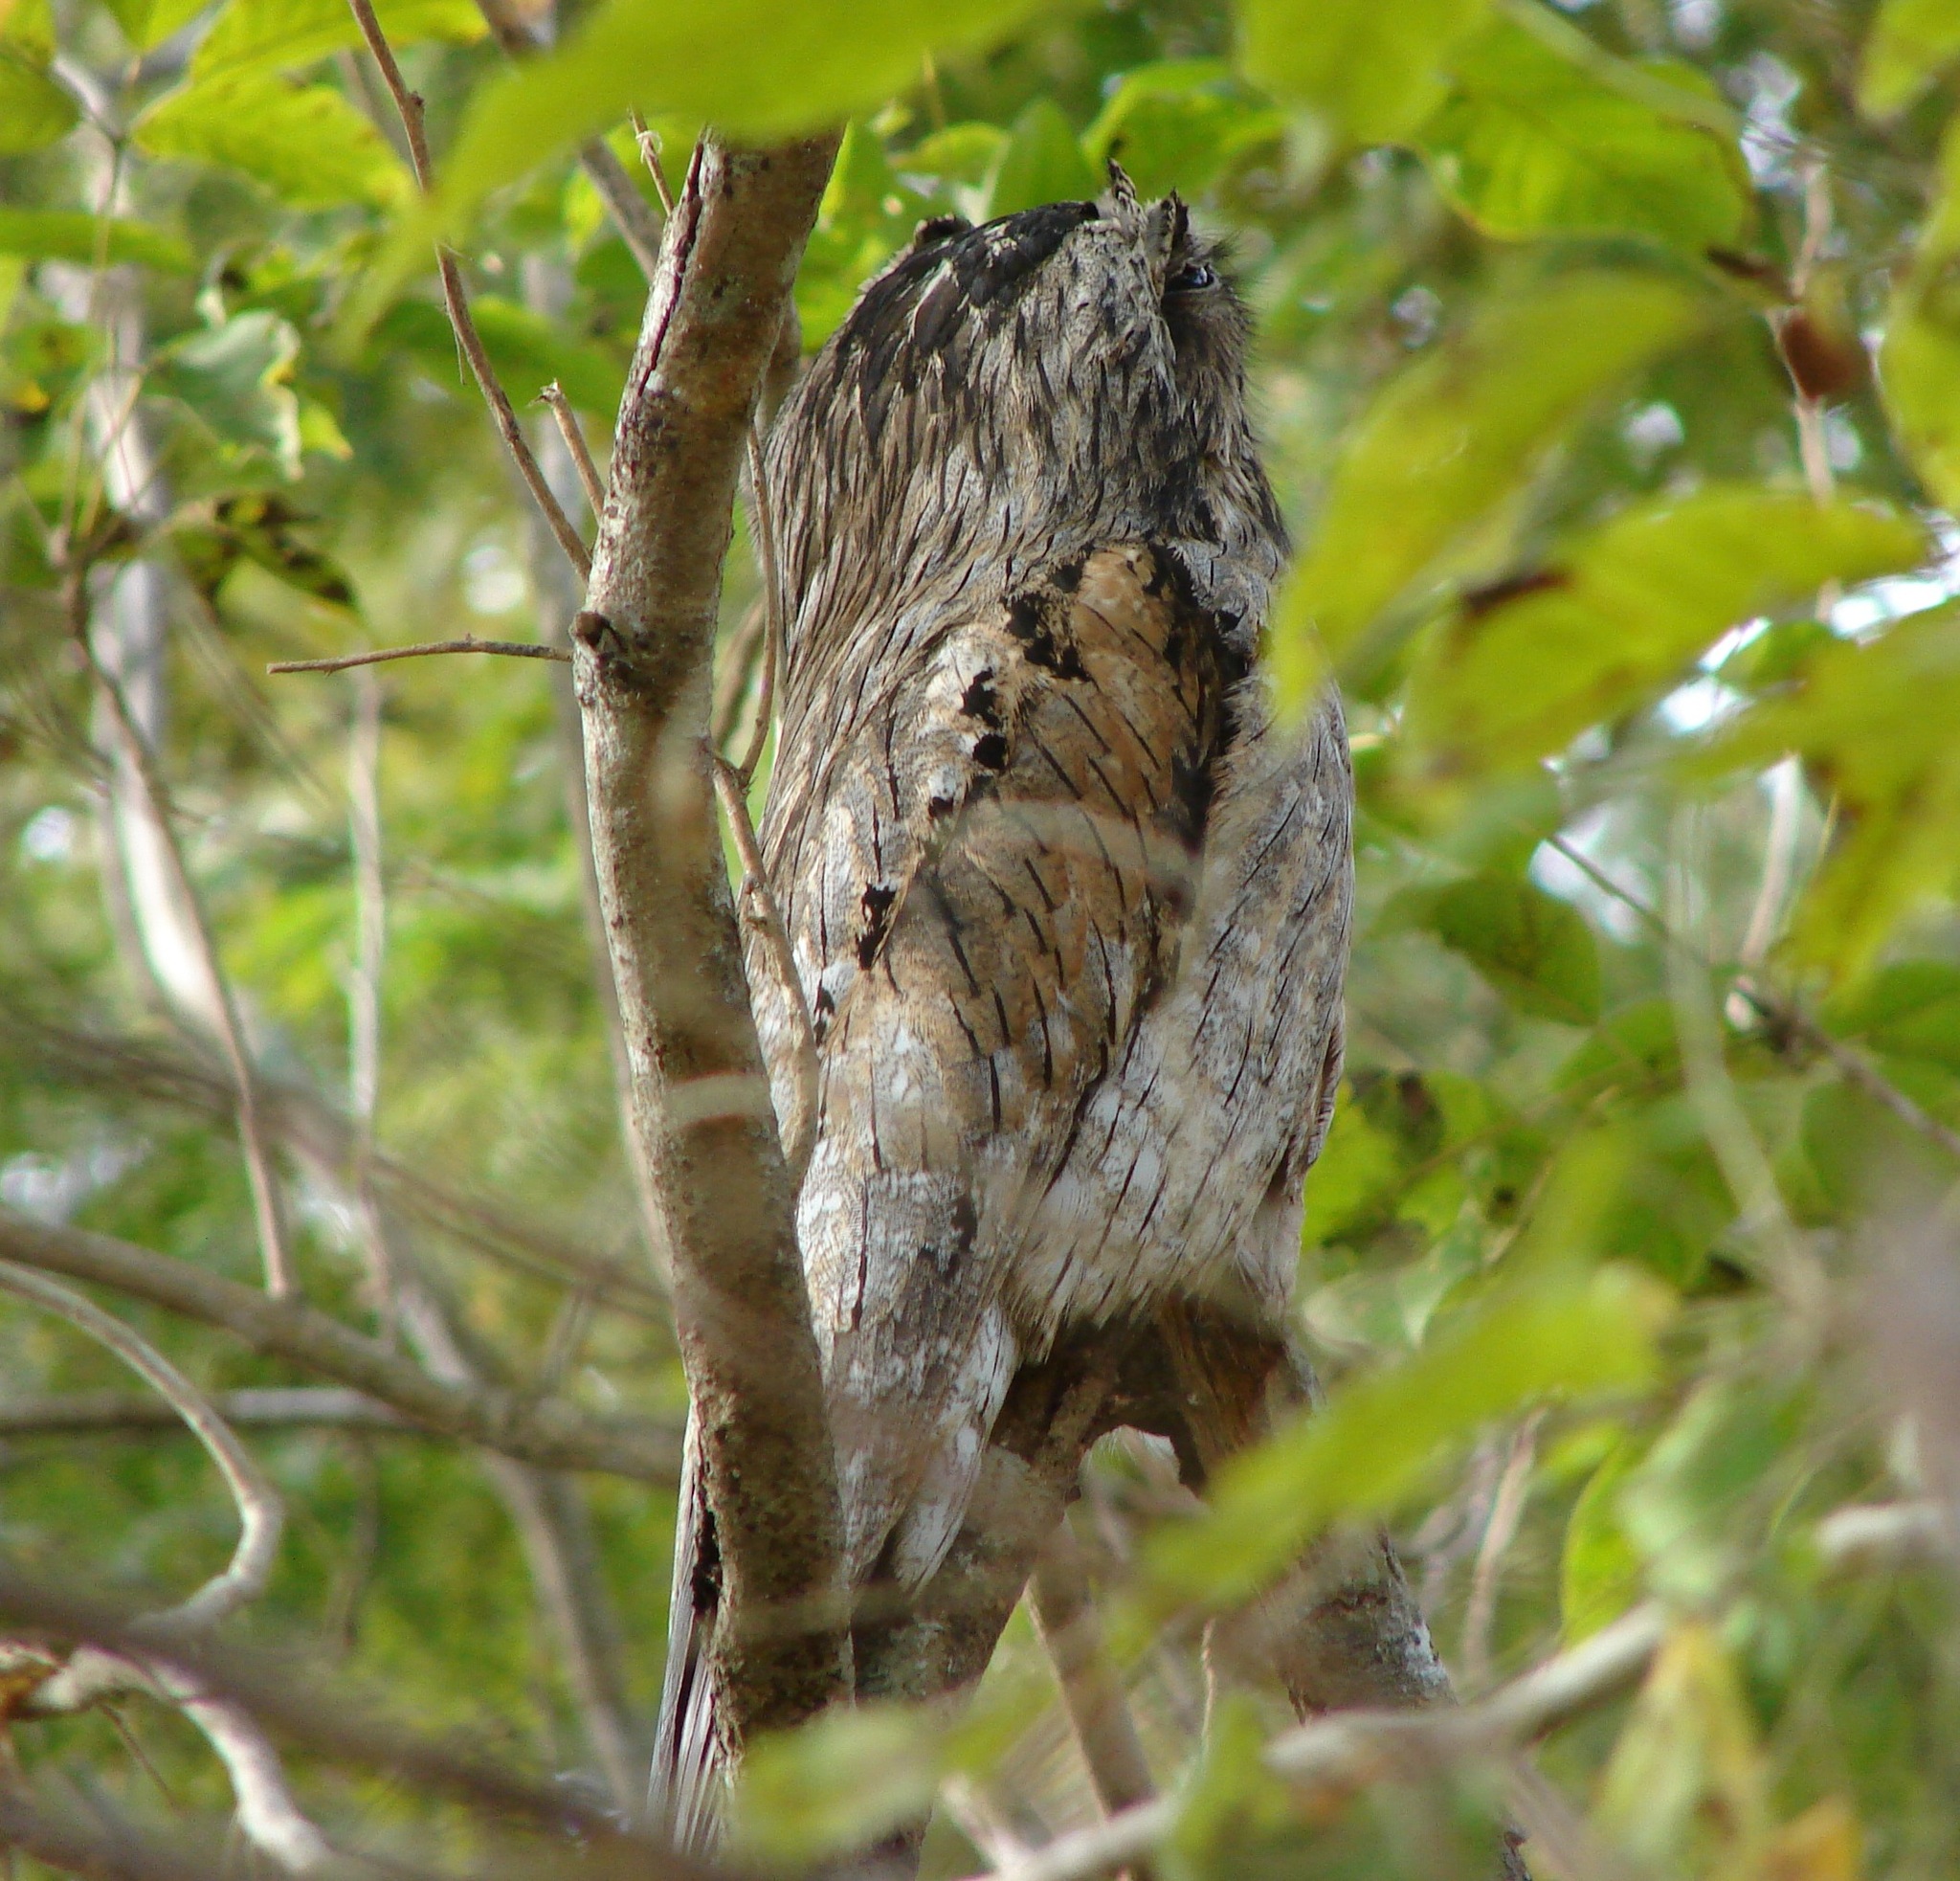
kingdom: Animalia
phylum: Chordata
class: Aves
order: Nyctibiiformes
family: Nyctibiidae
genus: Nyctibius
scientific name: Nyctibius jamaicensis
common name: Northern potoo
